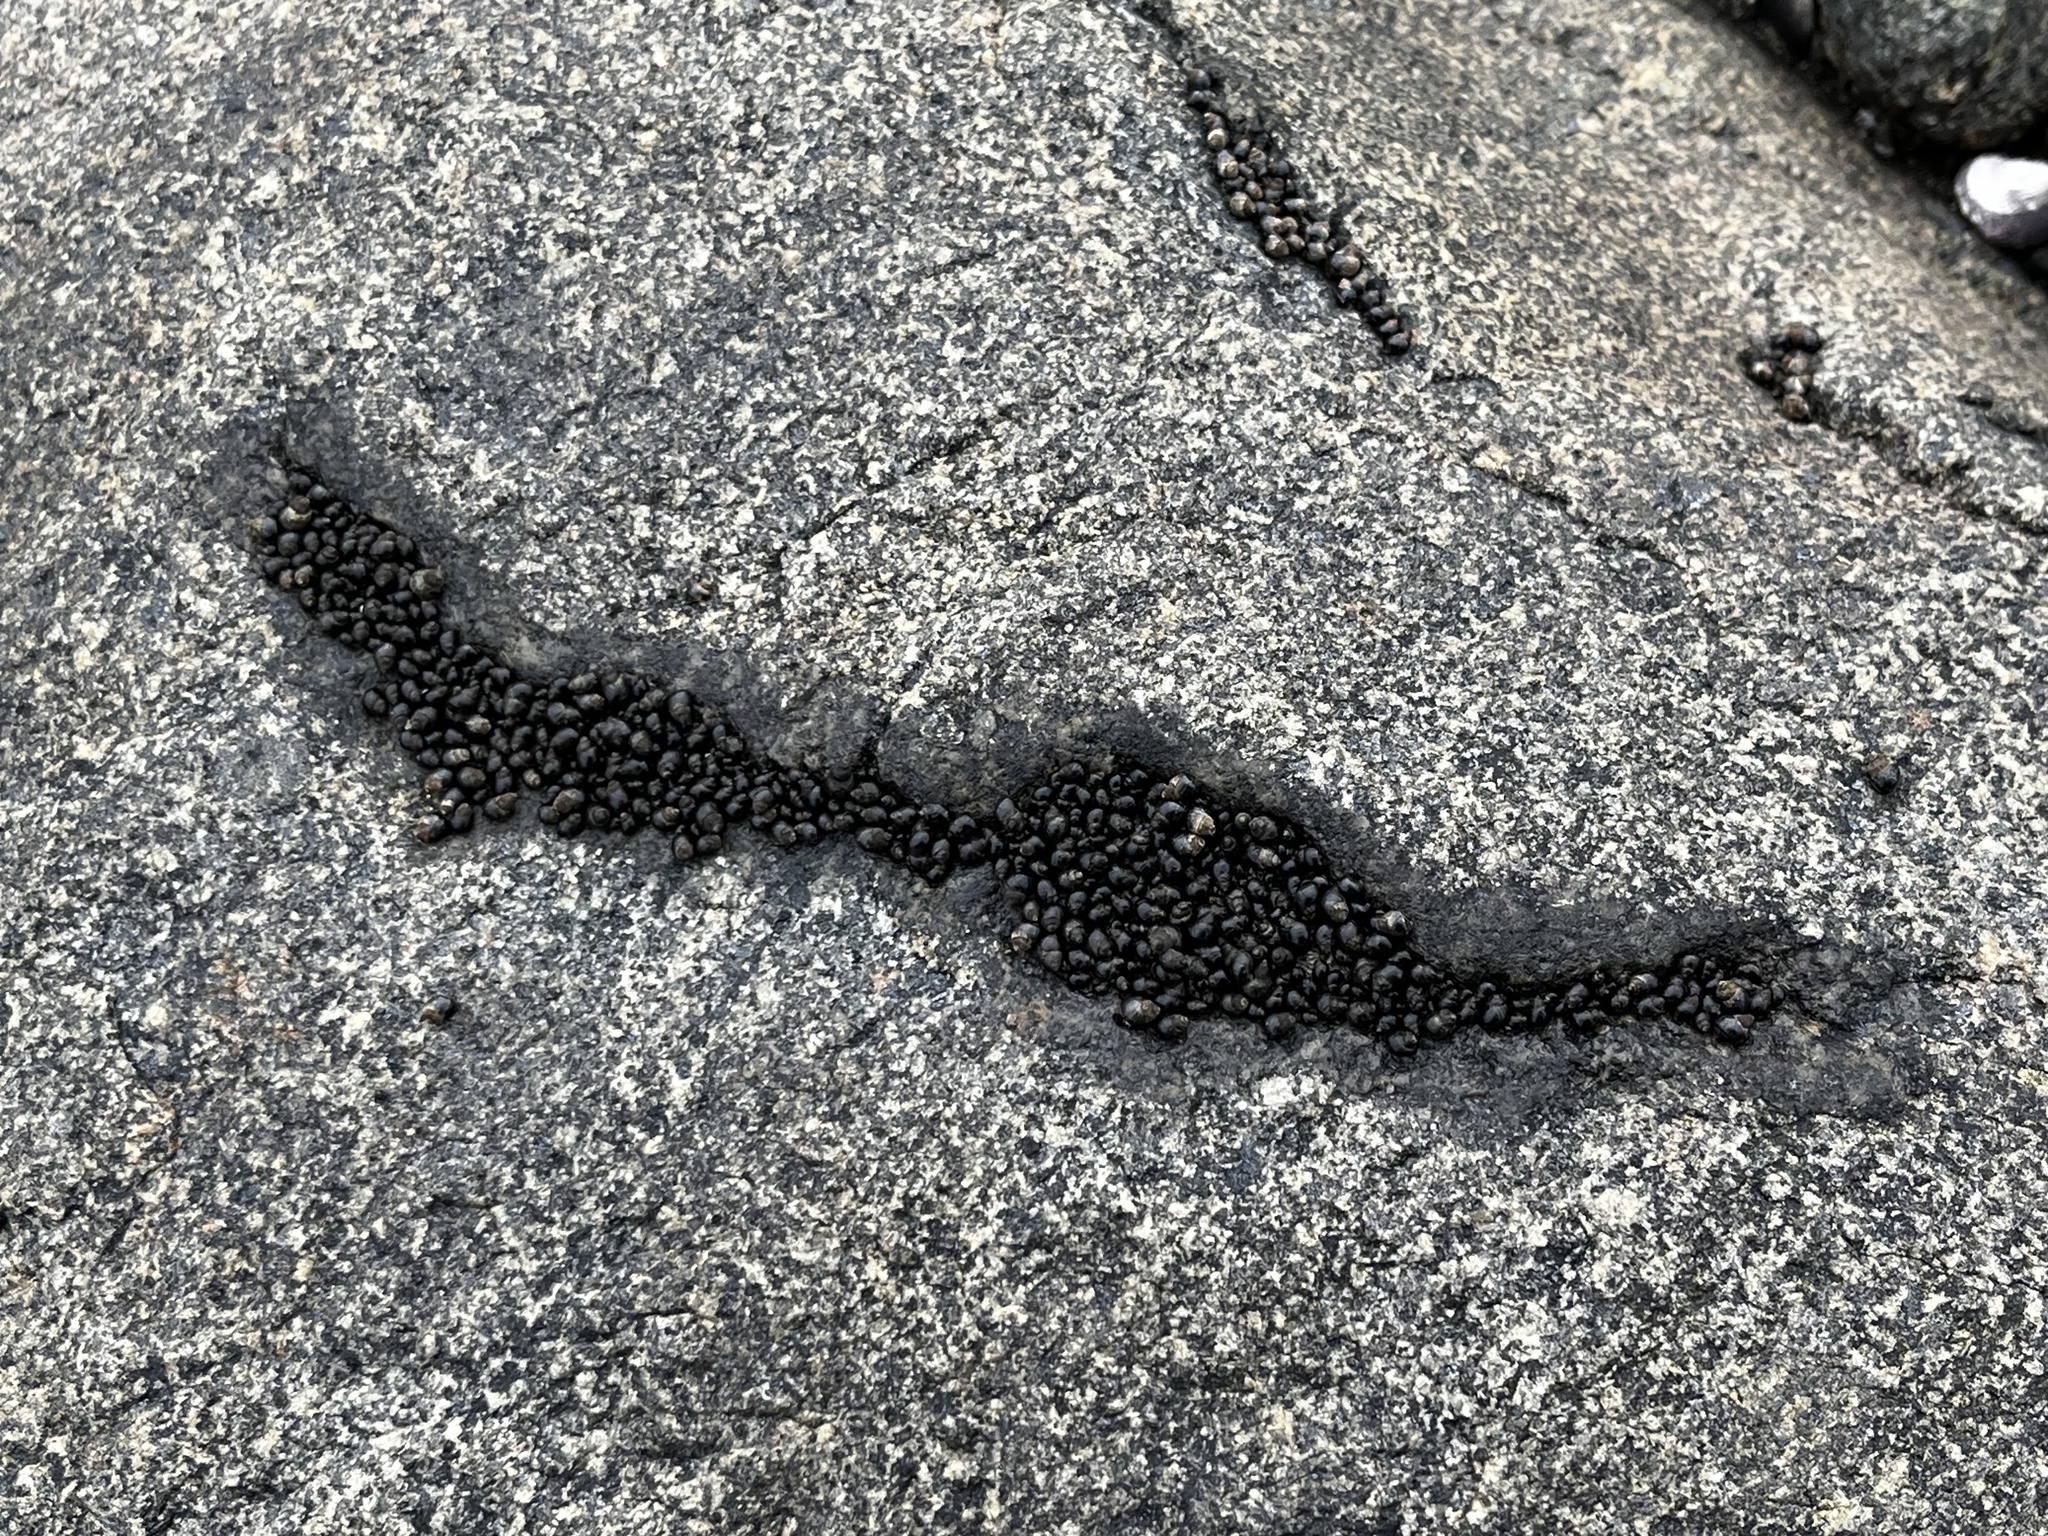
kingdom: Animalia
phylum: Mollusca
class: Gastropoda
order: Littorinimorpha
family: Littorinidae
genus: Austrolittorina
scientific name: Austrolittorina araucana
